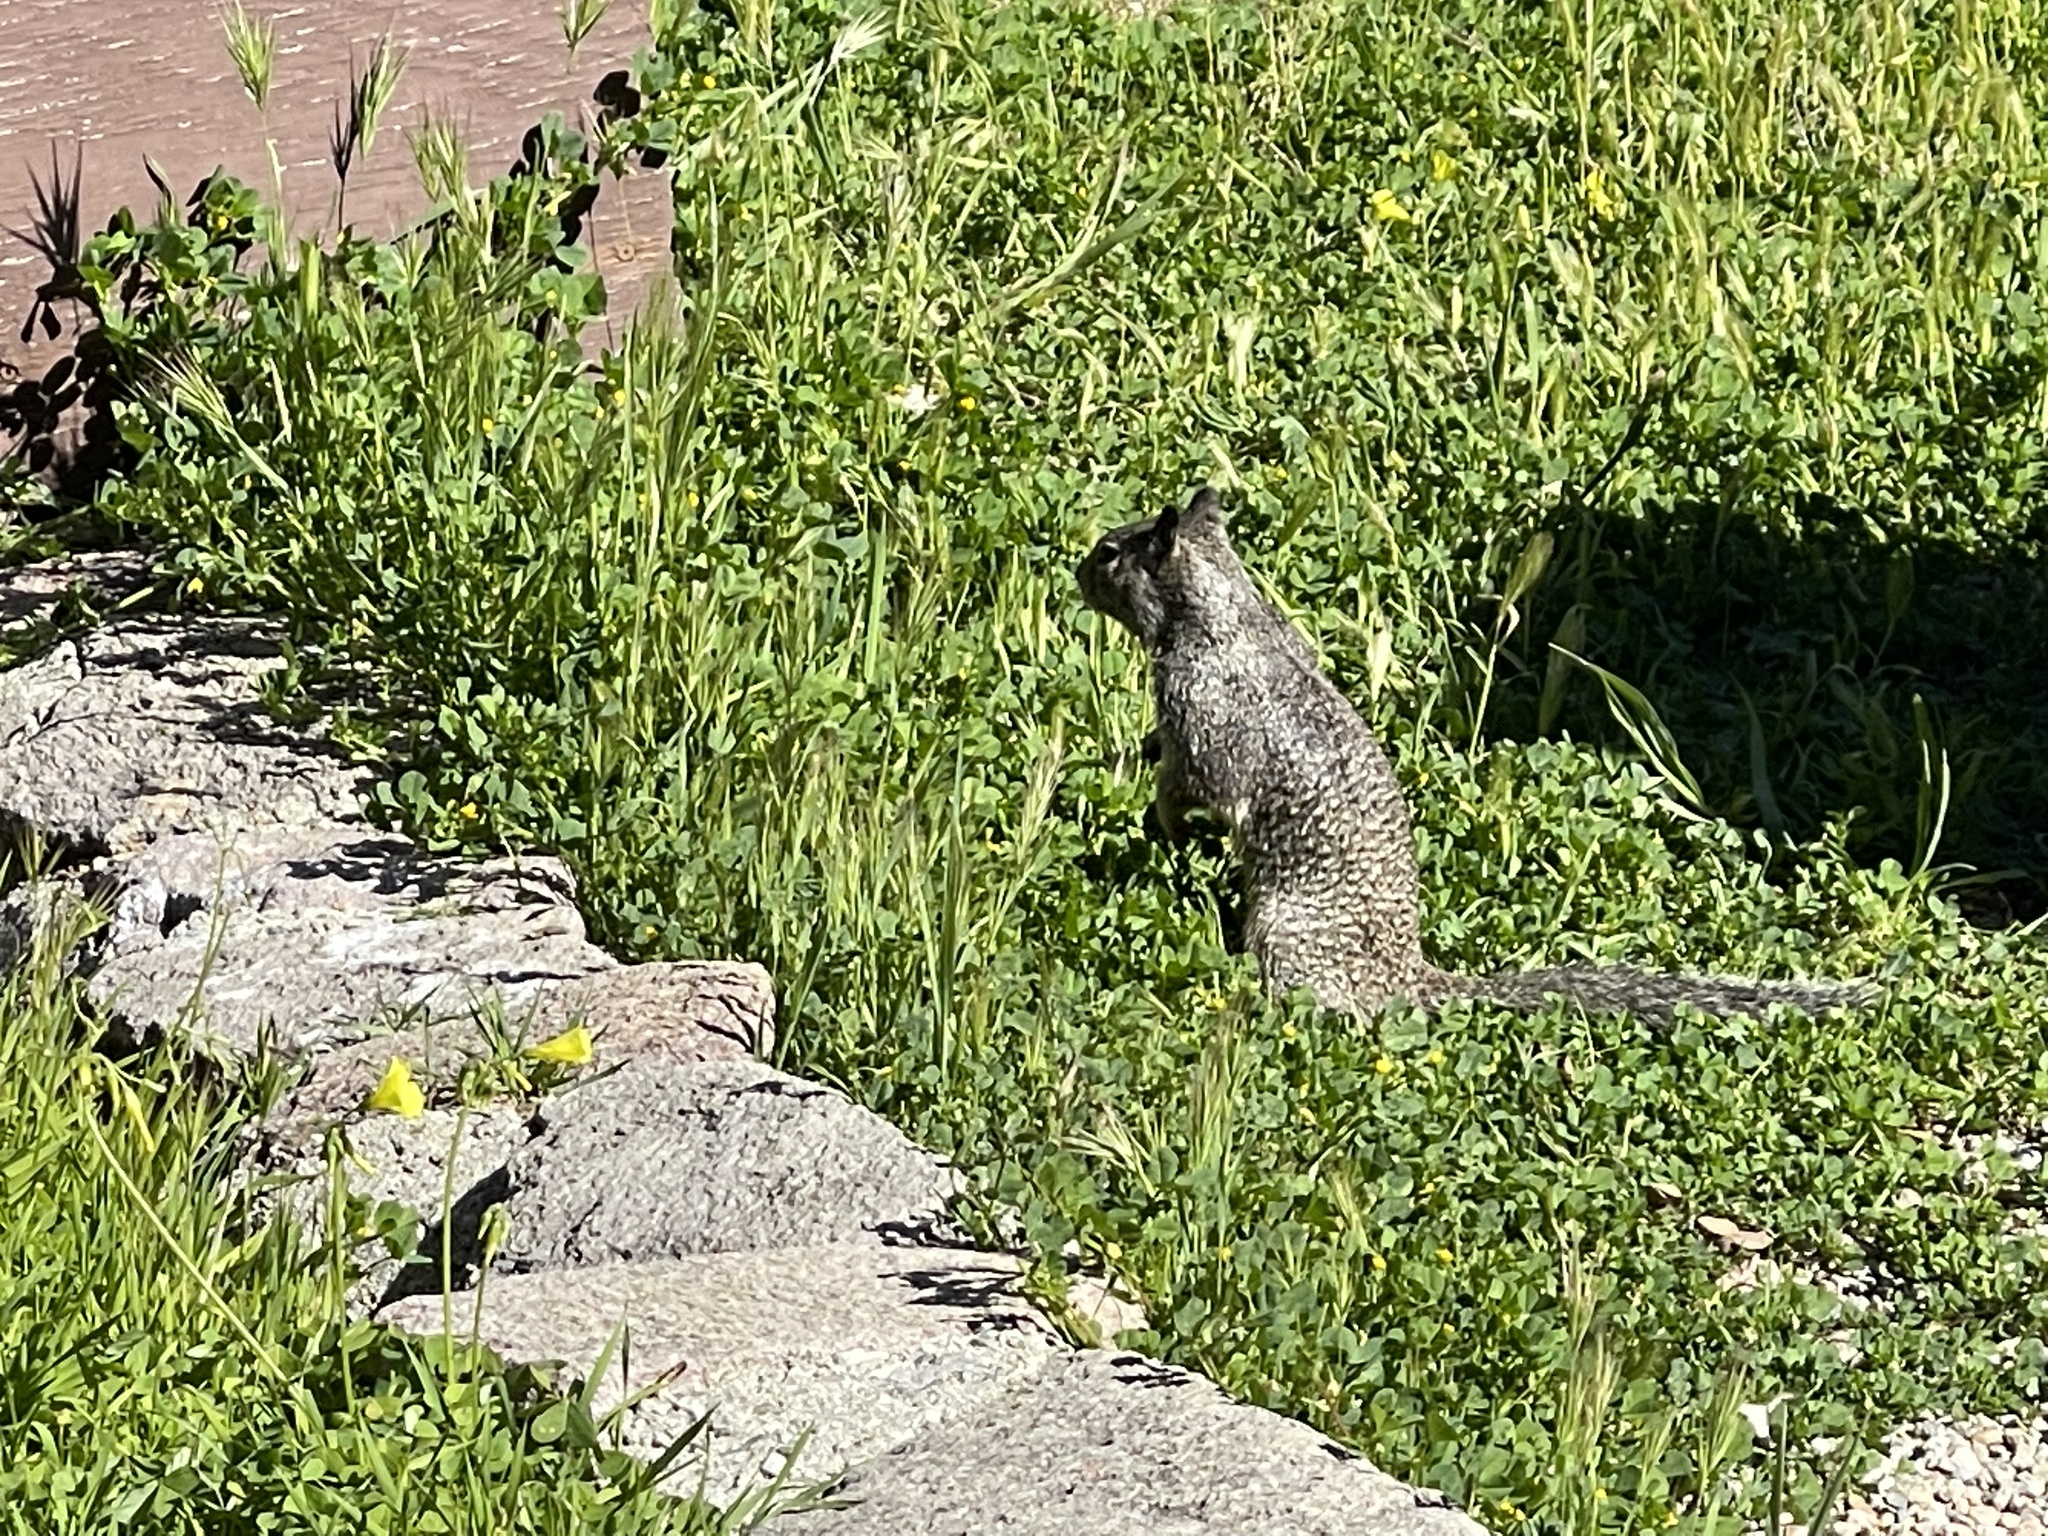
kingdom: Animalia
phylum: Chordata
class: Mammalia
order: Rodentia
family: Sciuridae
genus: Otospermophilus
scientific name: Otospermophilus beecheyi
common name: California ground squirrel
